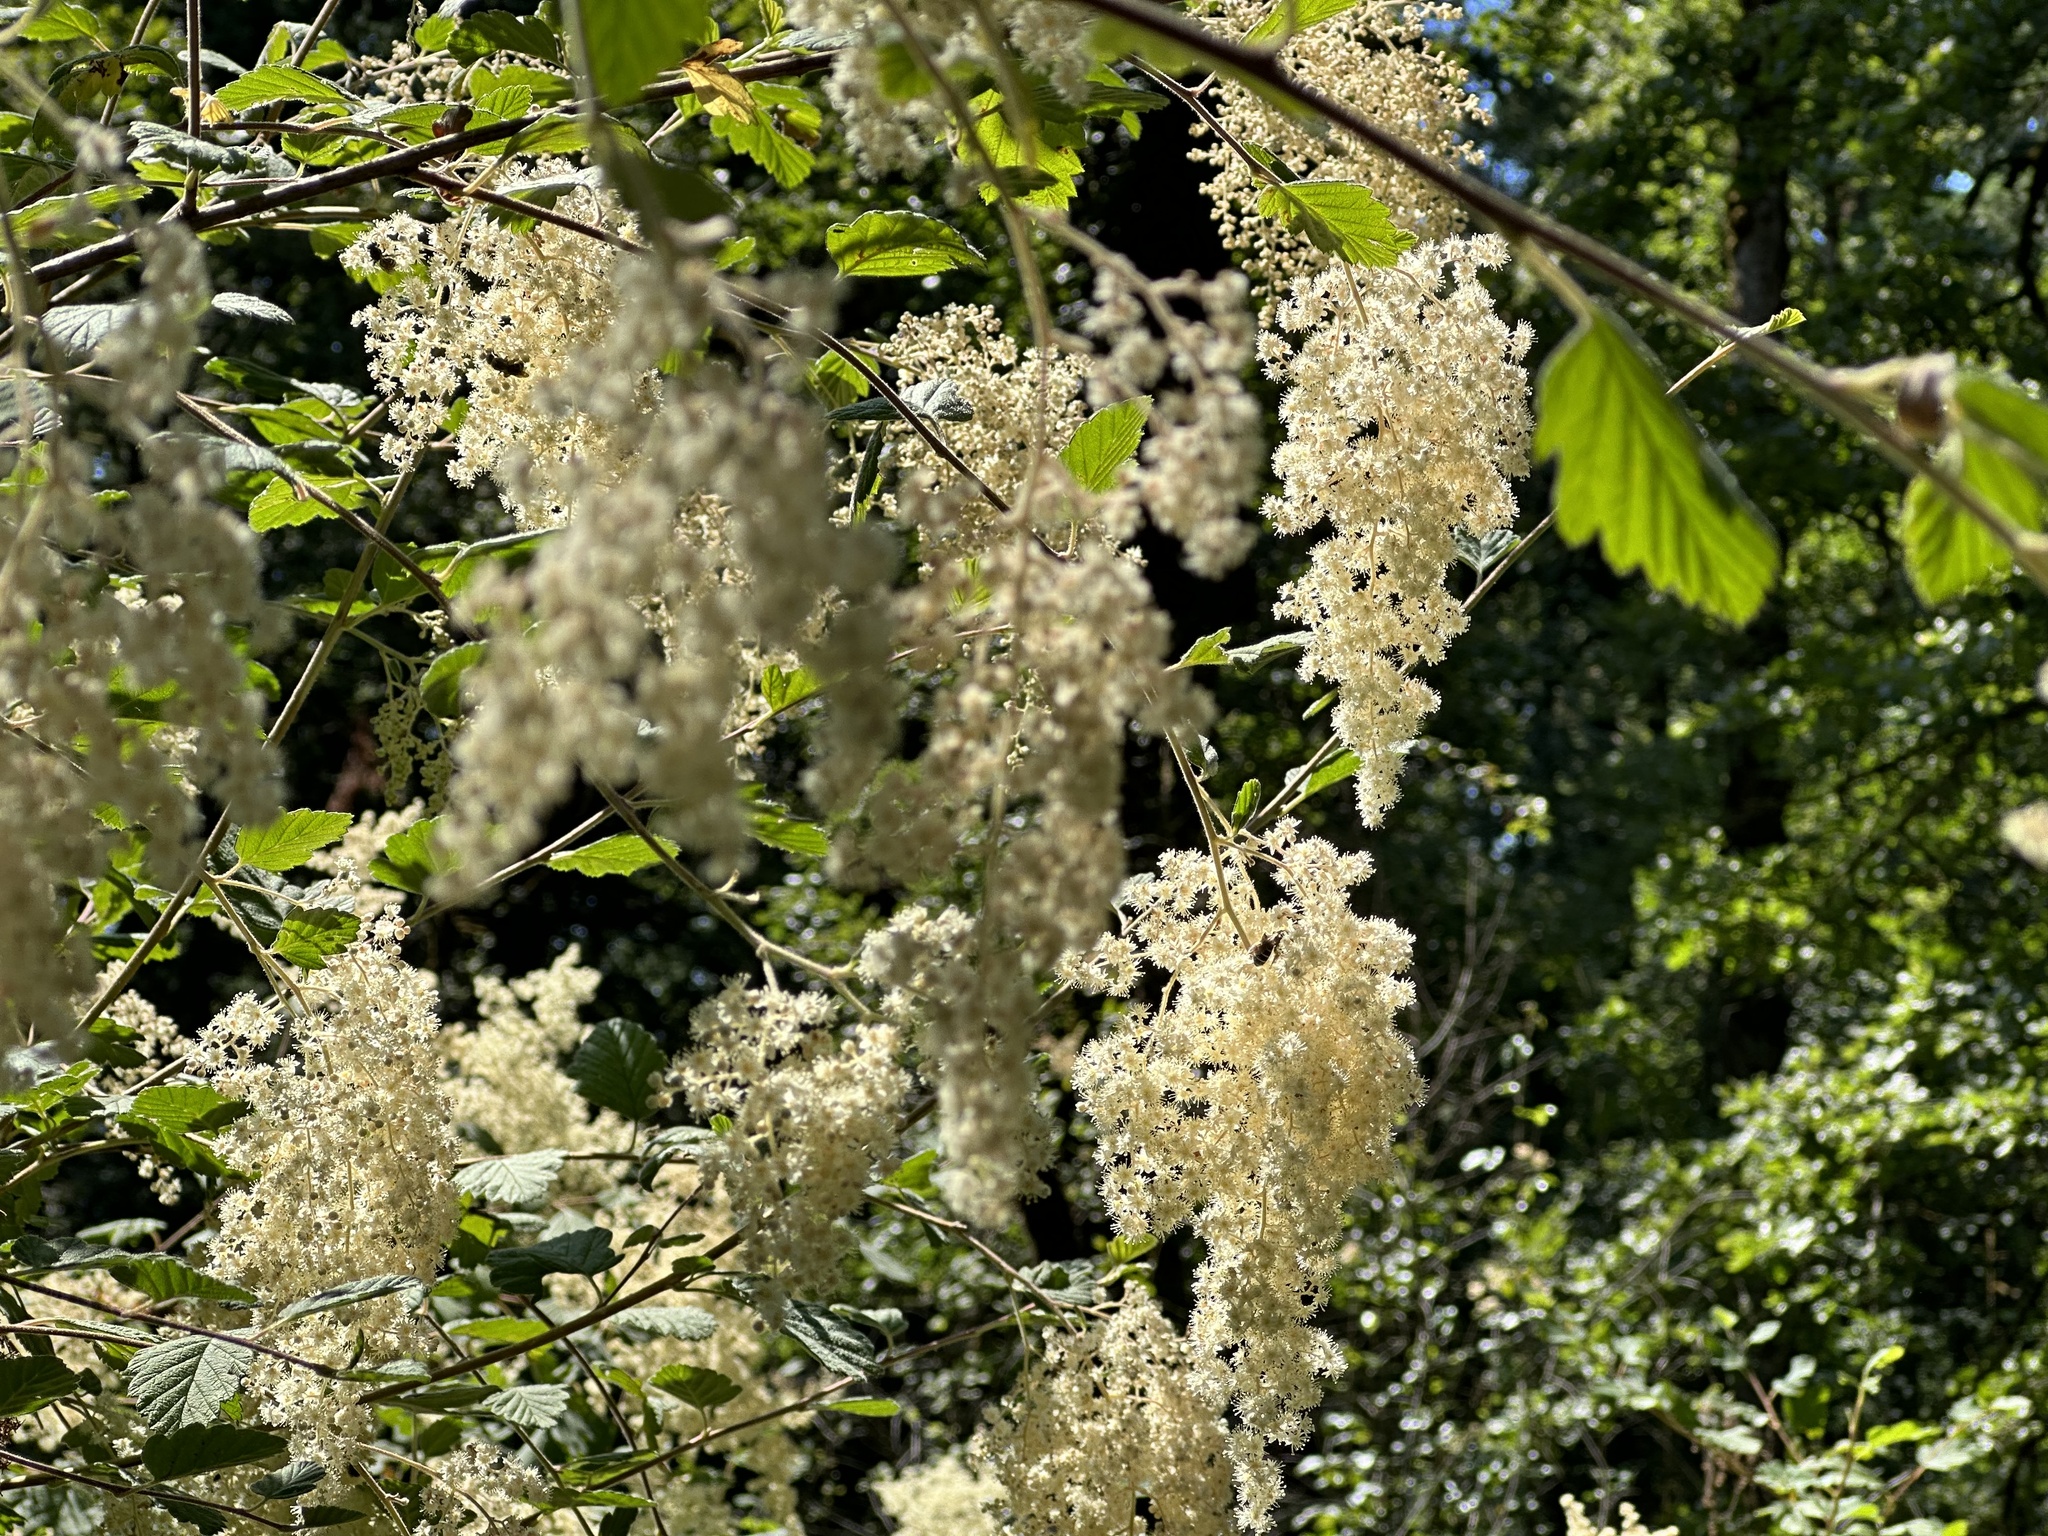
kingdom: Plantae
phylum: Tracheophyta
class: Magnoliopsida
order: Rosales
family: Rosaceae
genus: Holodiscus
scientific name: Holodiscus discolor
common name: Oceanspray
